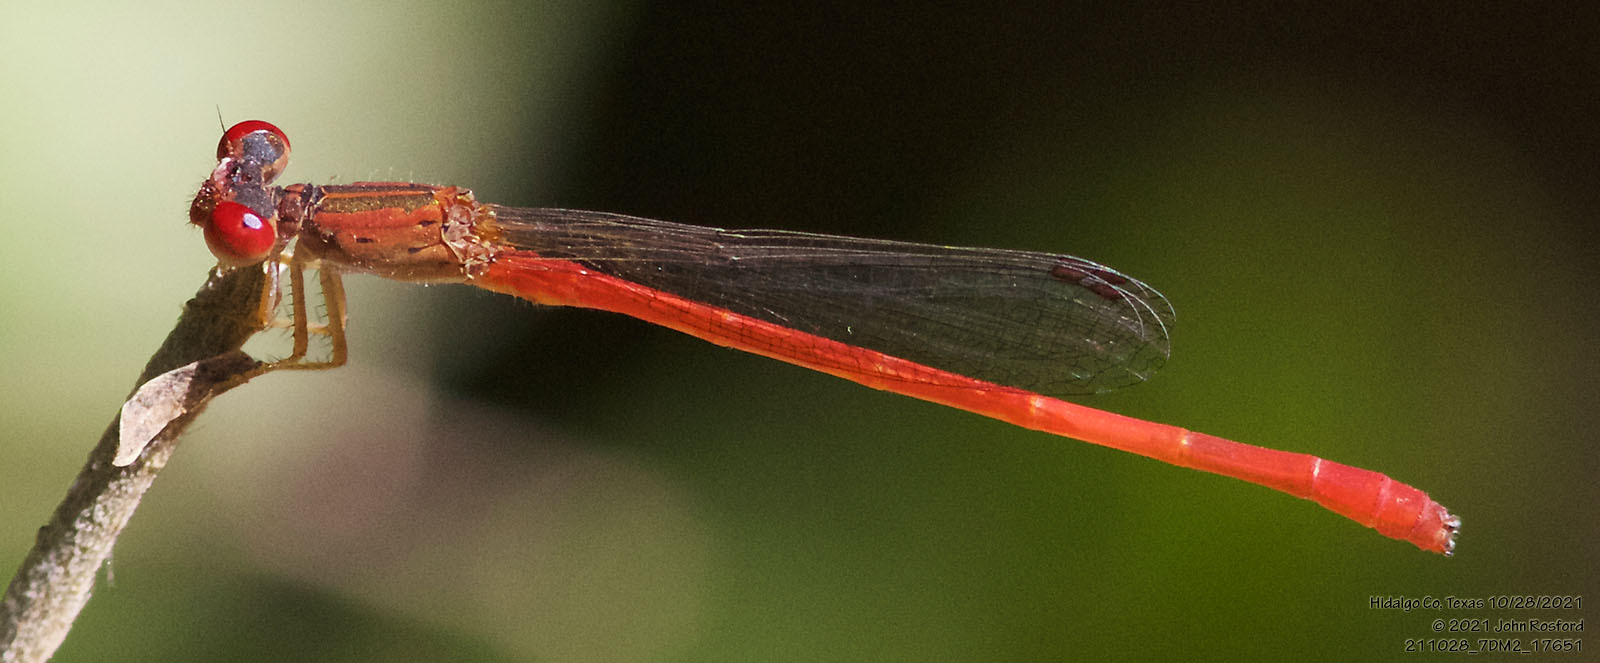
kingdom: Animalia
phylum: Arthropoda
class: Insecta
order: Odonata
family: Coenagrionidae
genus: Telebasis
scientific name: Telebasis salva
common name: Desert firetail
